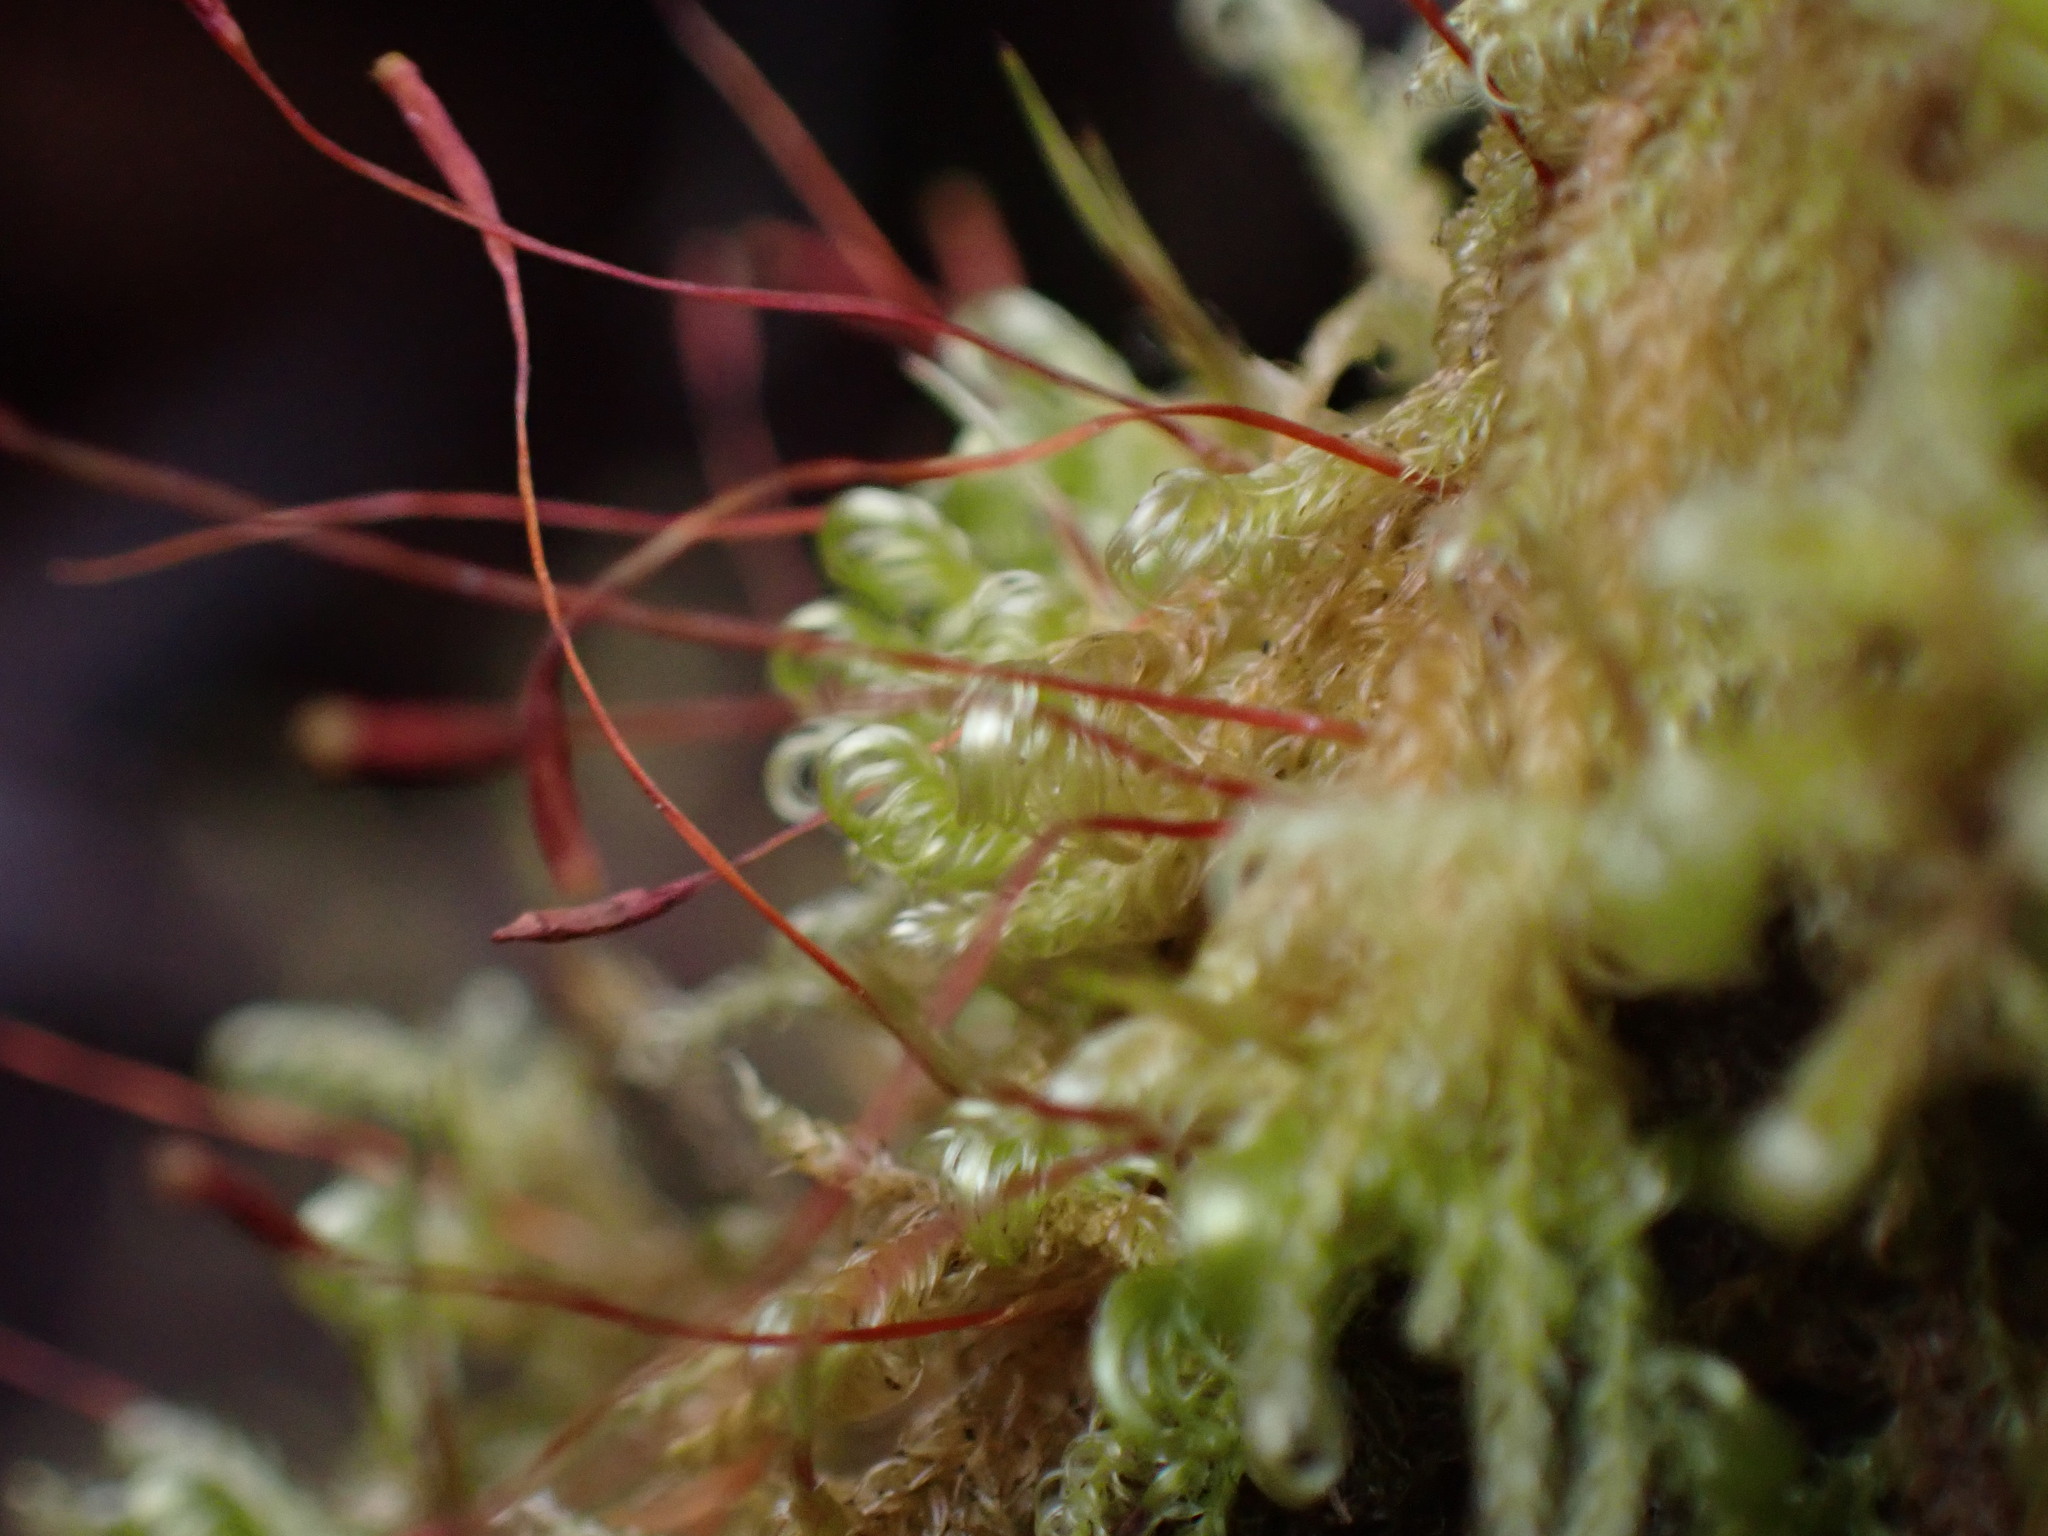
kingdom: Plantae
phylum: Bryophyta
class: Bryopsida
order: Hypnales
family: Scorpidiaceae
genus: Sanionia
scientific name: Sanionia uncinata
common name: Sickle moss
